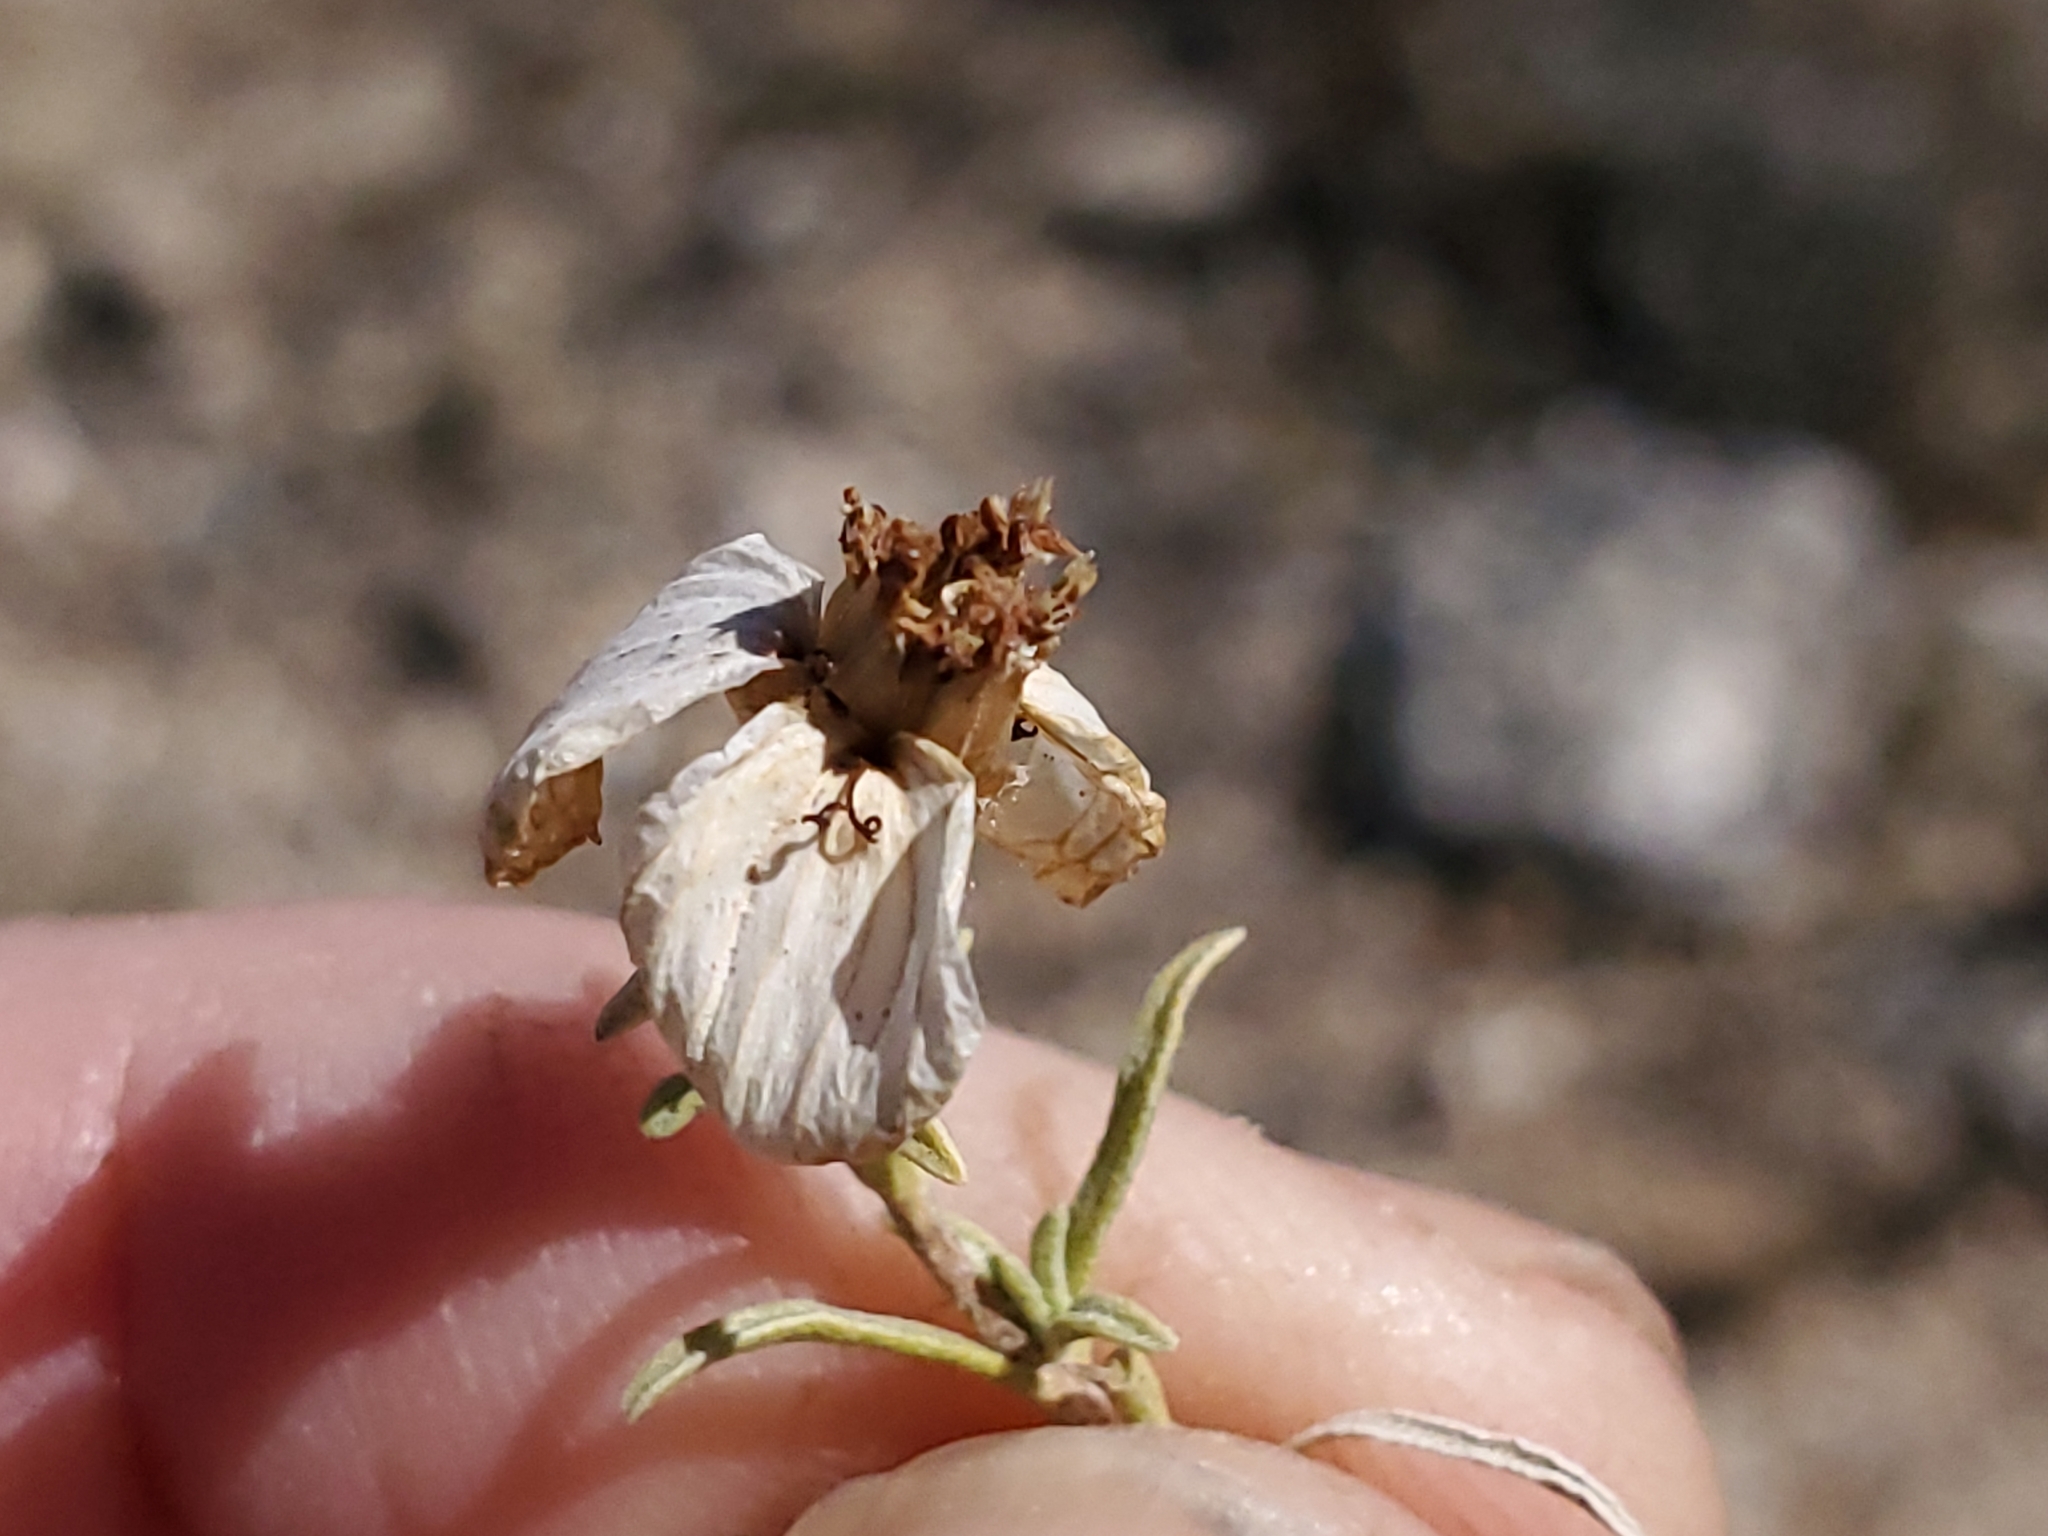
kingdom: Plantae
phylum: Tracheophyta
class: Magnoliopsida
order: Asterales
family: Asteraceae
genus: Zinnia
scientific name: Zinnia acerosa
